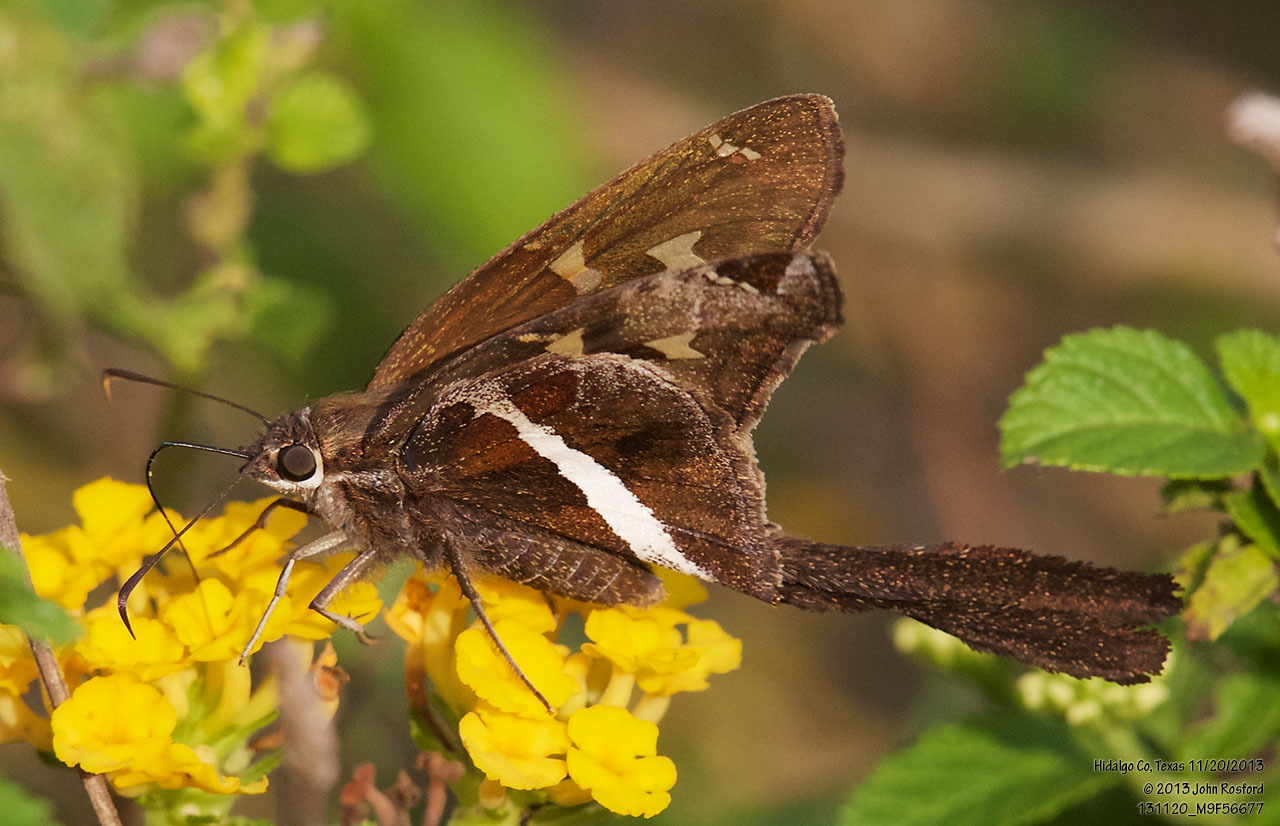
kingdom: Animalia
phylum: Arthropoda
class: Insecta
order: Lepidoptera
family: Hesperiidae
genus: Chioides
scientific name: Chioides catillus
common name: Silverbanded skipper
